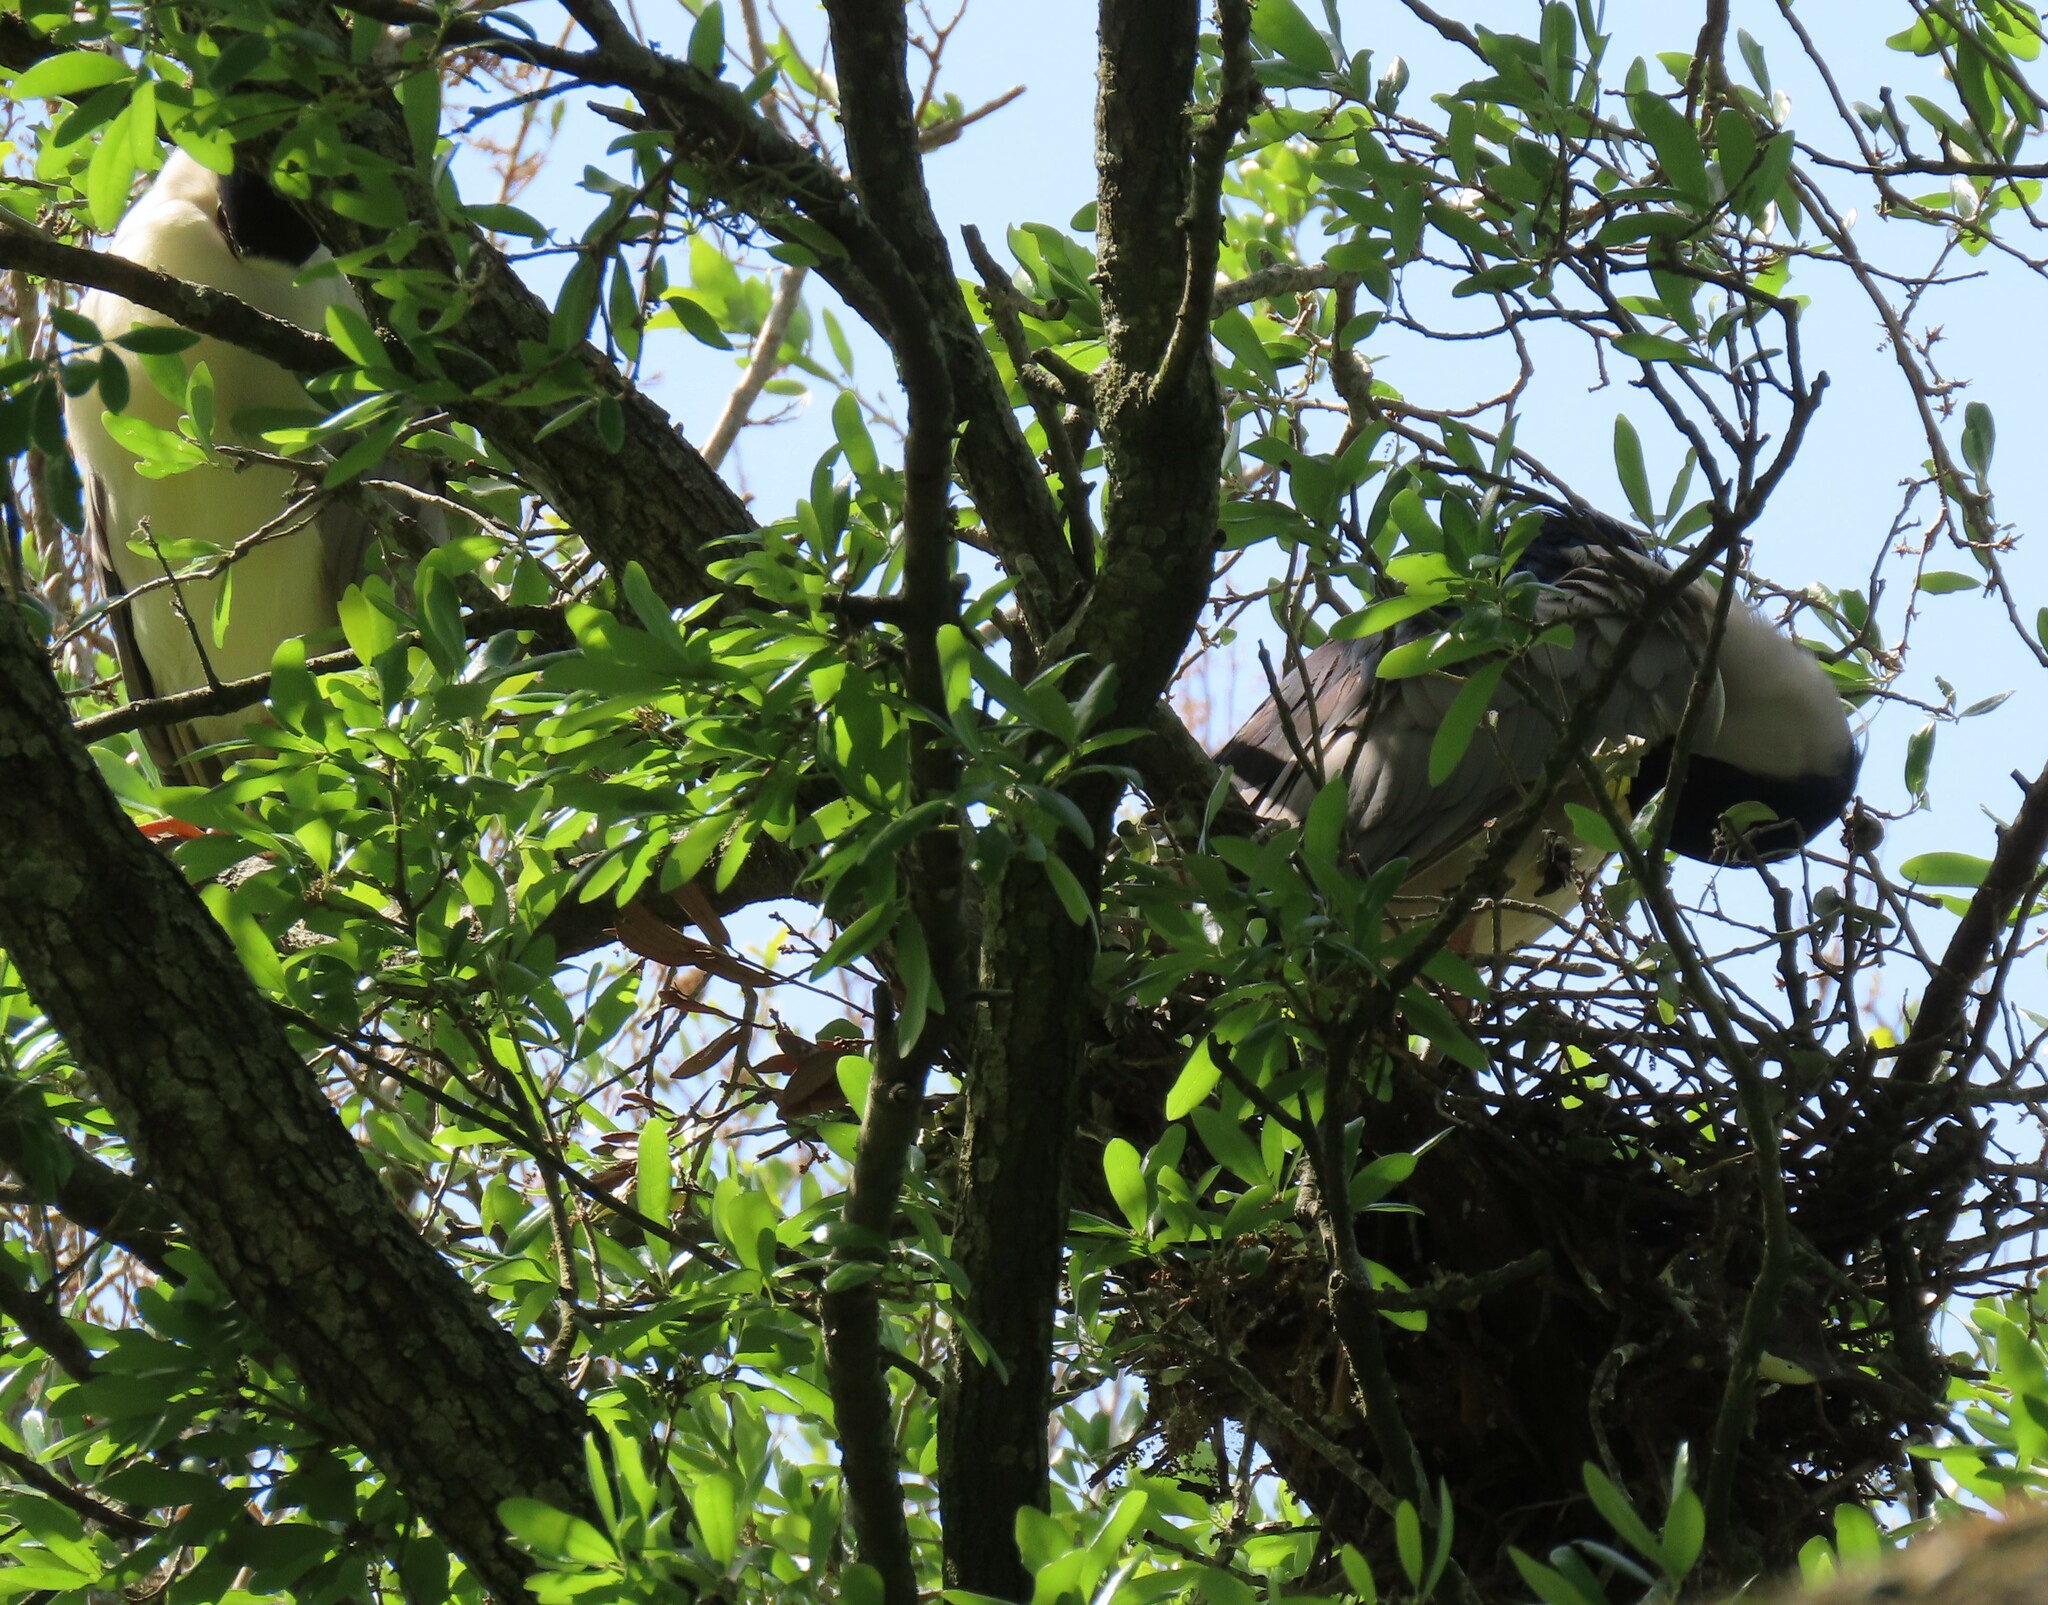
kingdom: Animalia
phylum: Chordata
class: Aves
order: Pelecaniformes
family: Ardeidae
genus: Nycticorax
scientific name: Nycticorax nycticorax
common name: Black-crowned night heron
